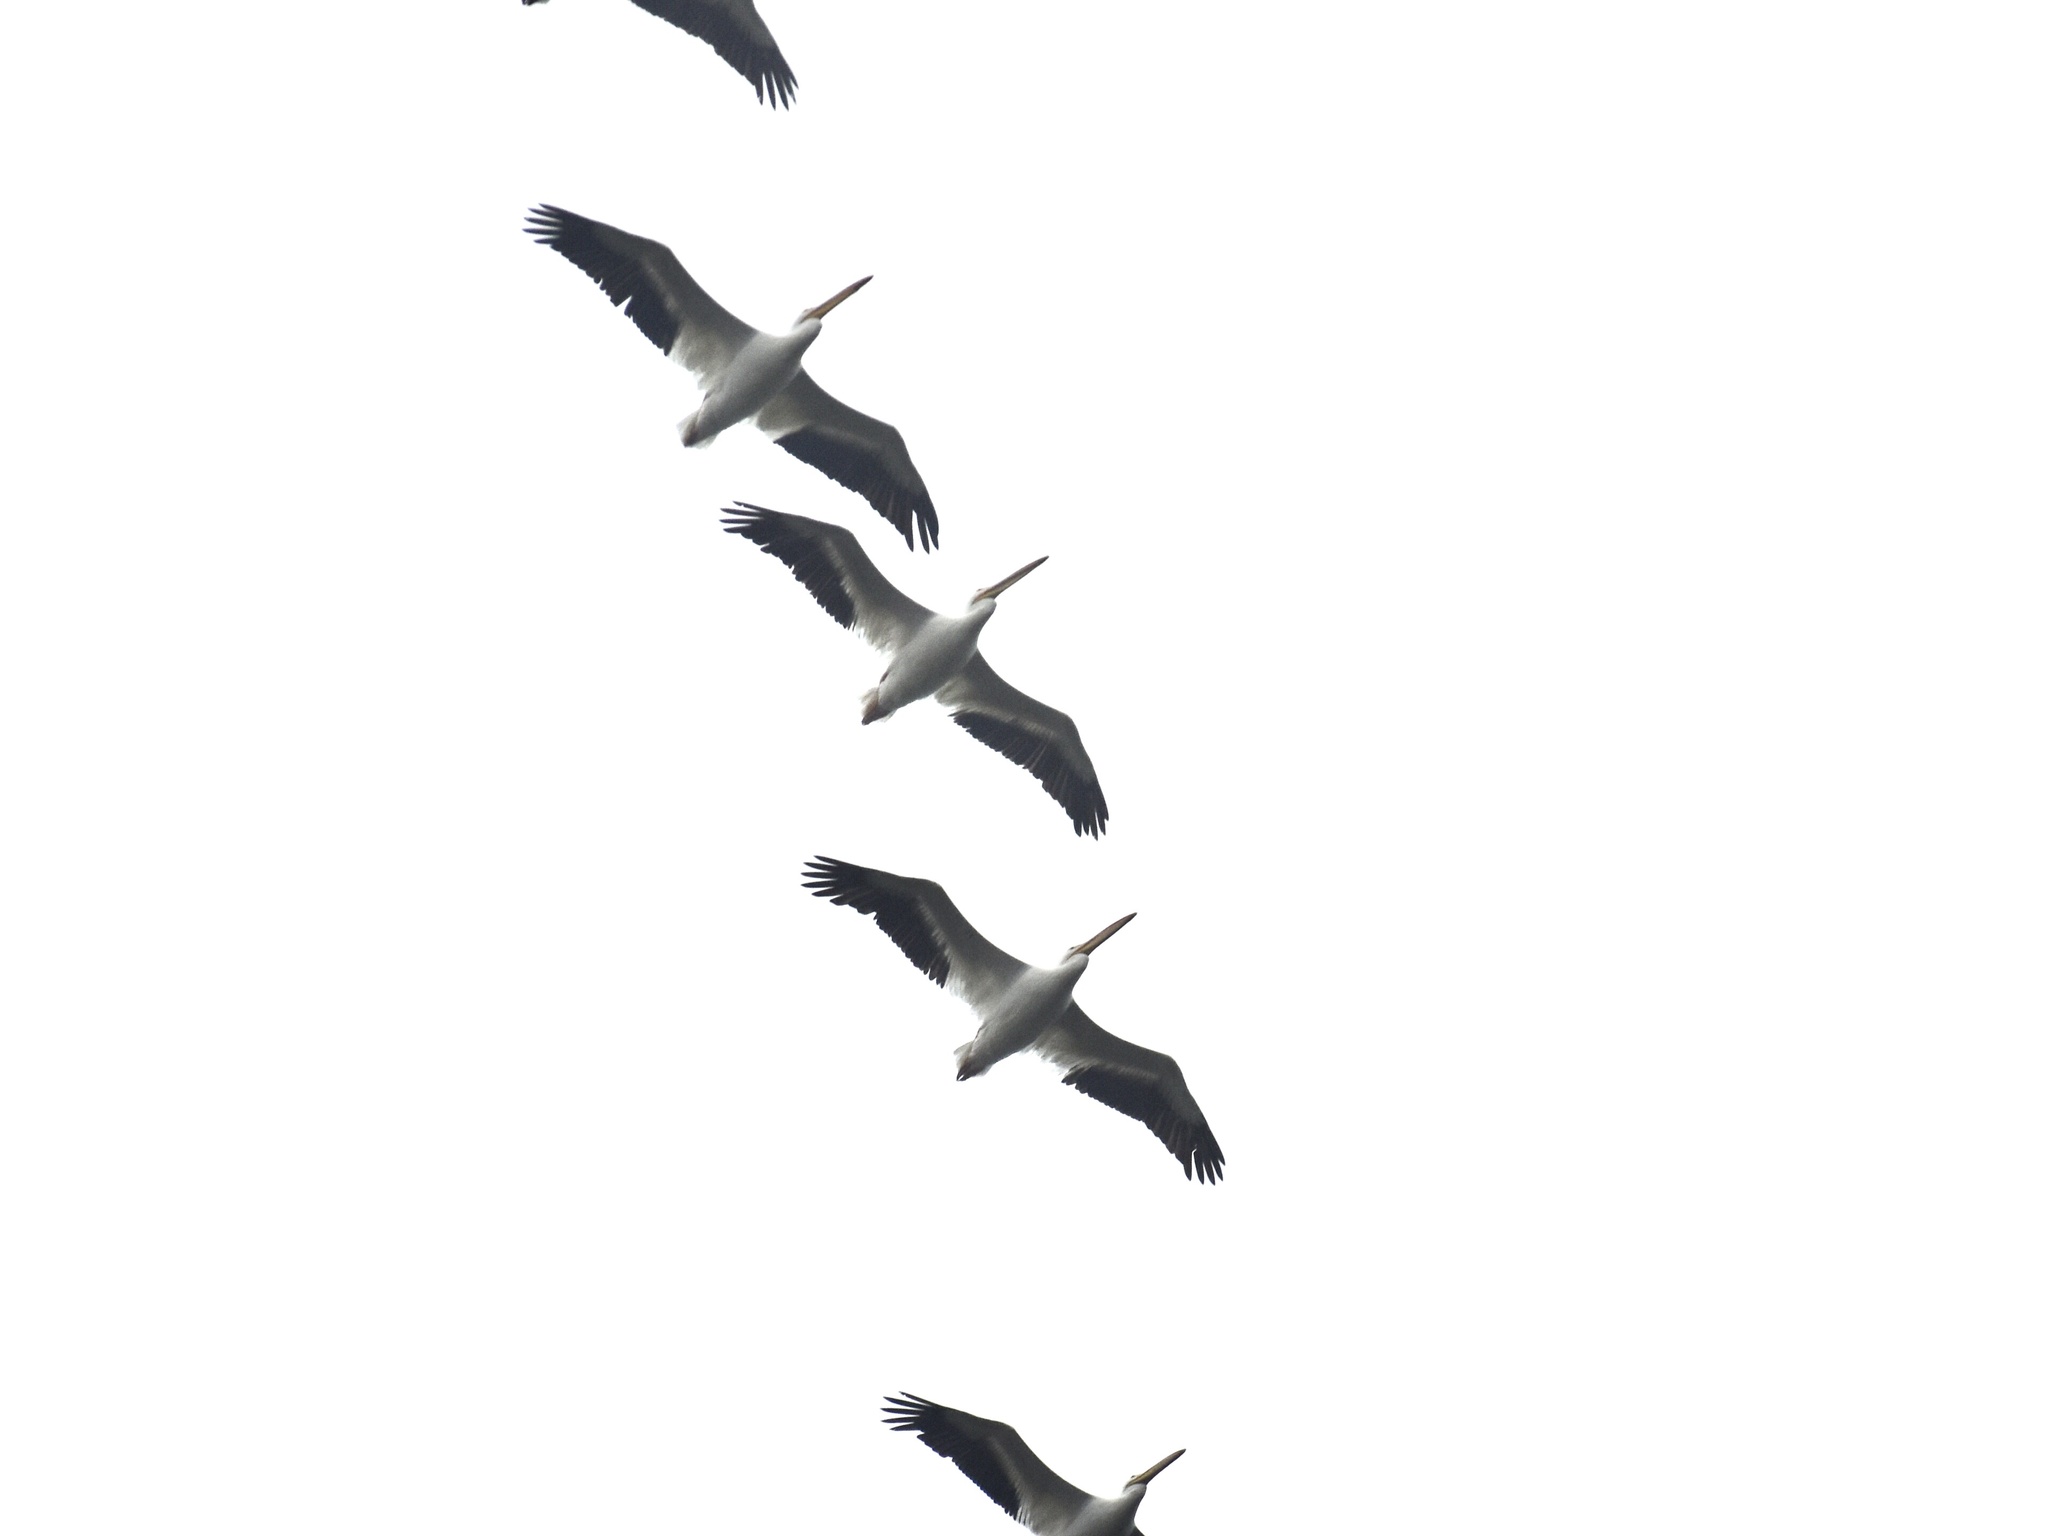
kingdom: Animalia
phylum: Chordata
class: Aves
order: Pelecaniformes
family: Pelecanidae
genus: Pelecanus
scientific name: Pelecanus erythrorhynchos
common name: American white pelican
